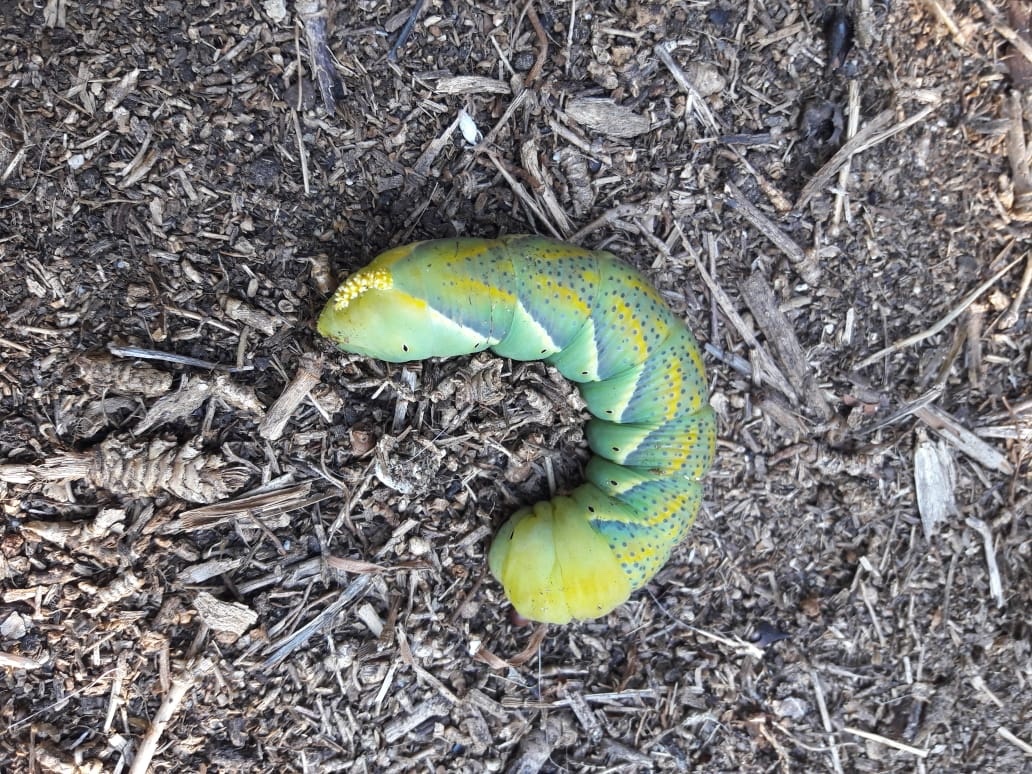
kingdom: Animalia
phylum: Arthropoda
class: Insecta
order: Lepidoptera
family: Sphingidae
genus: Acherontia
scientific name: Acherontia atropos
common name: Death's-head hawk moth
